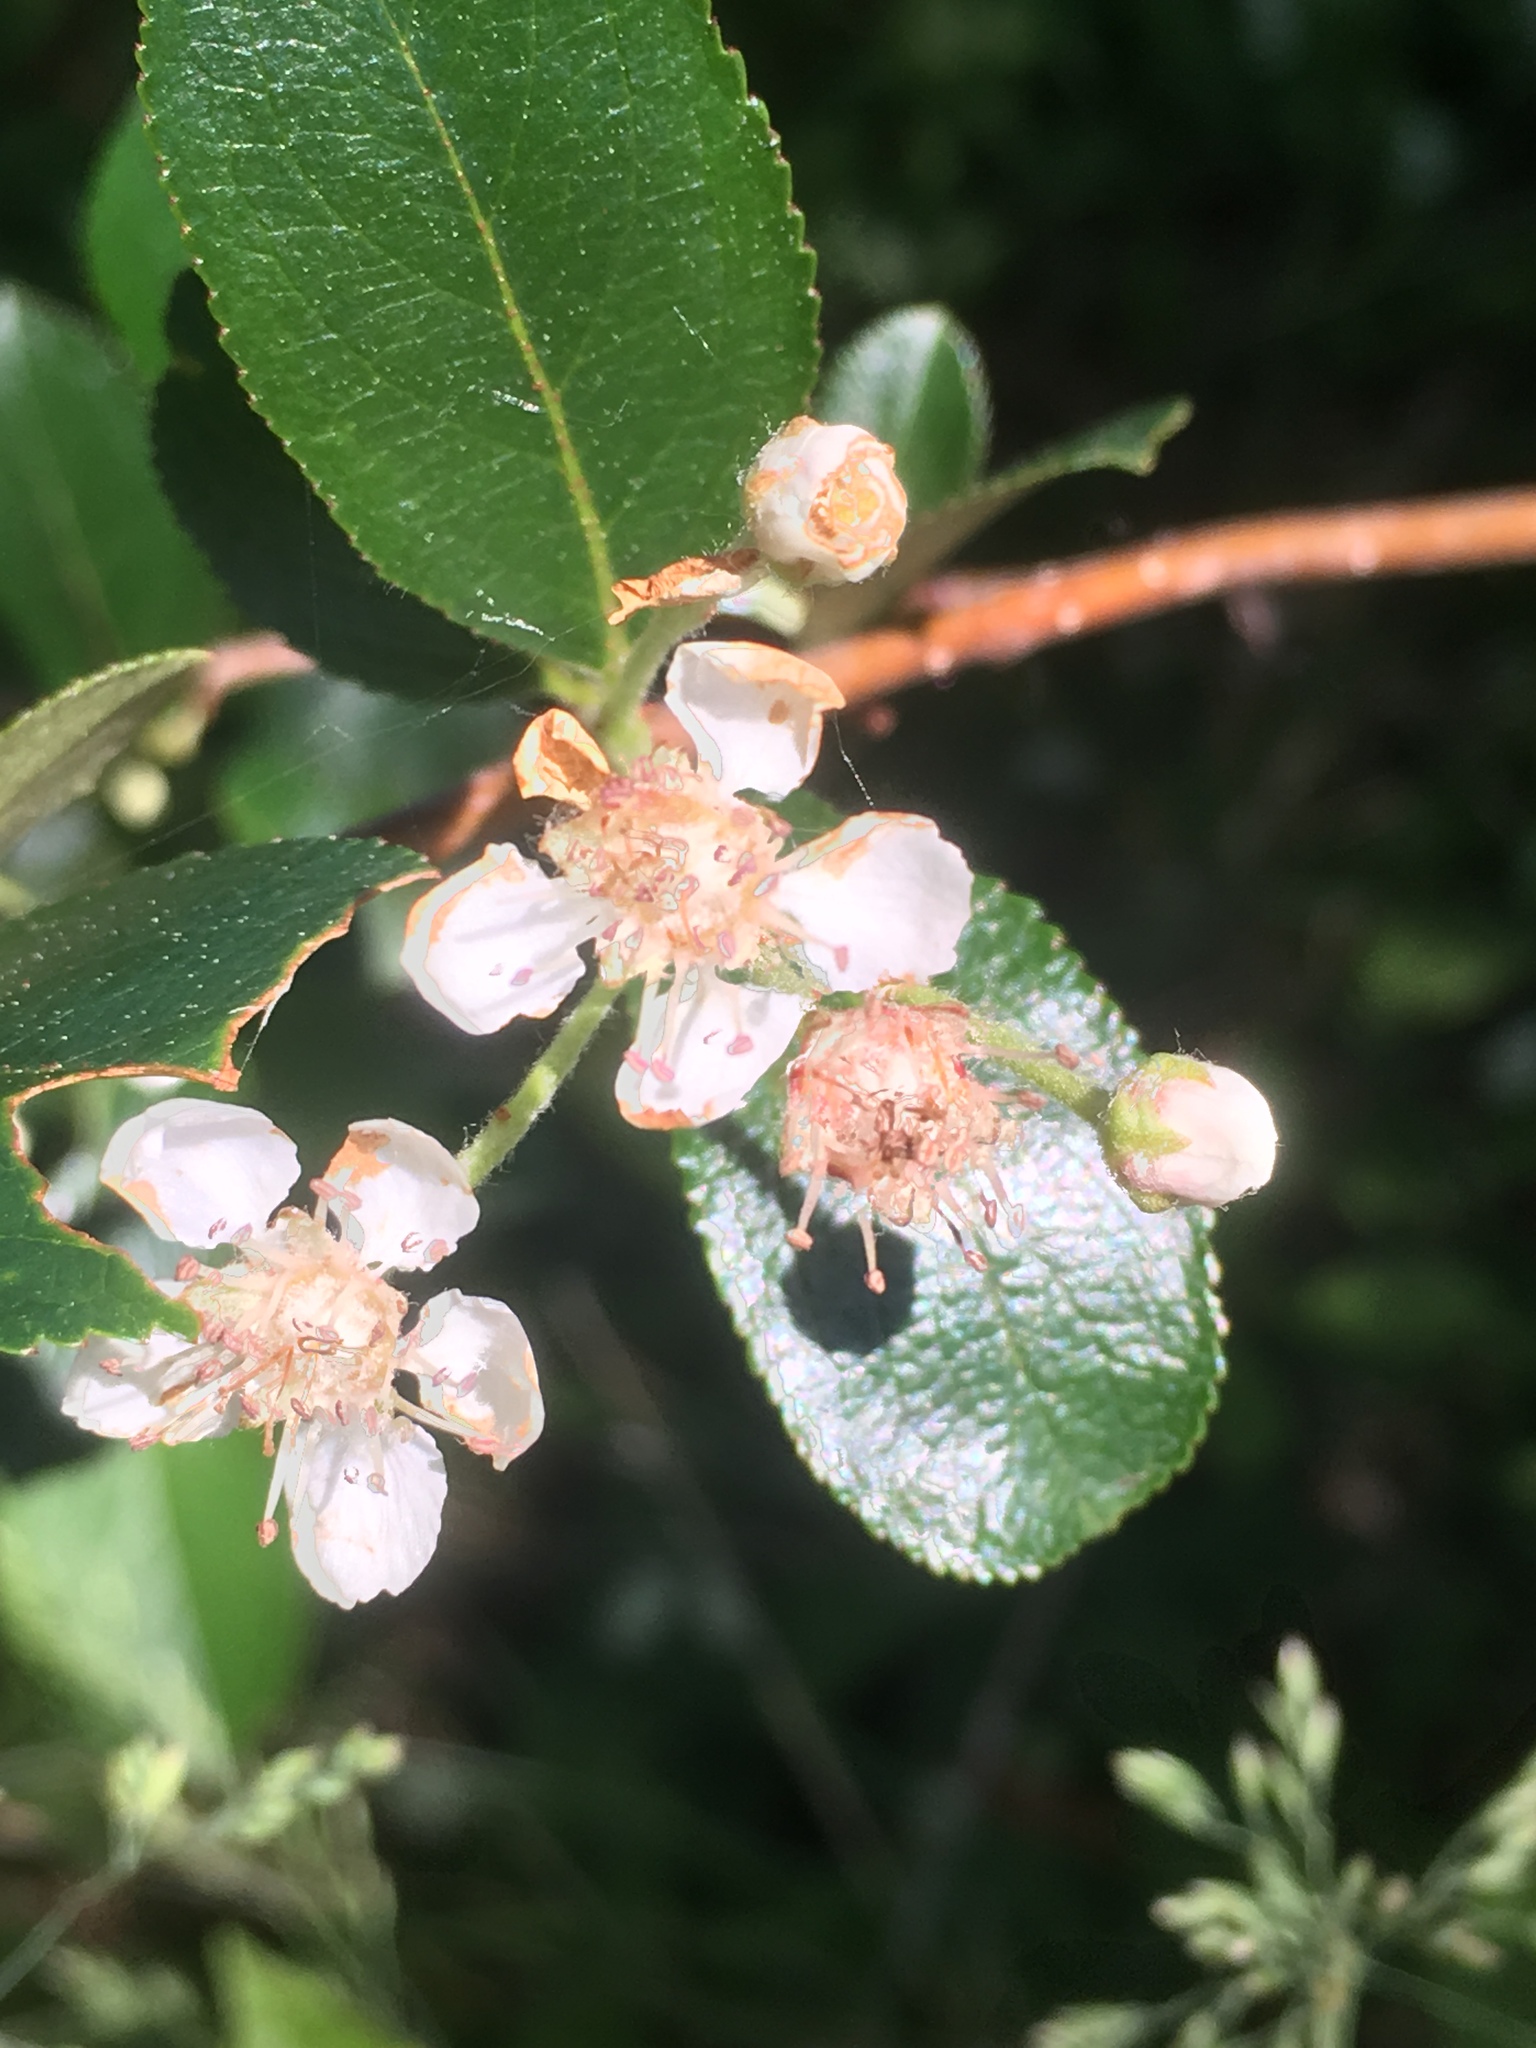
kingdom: Plantae
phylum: Tracheophyta
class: Magnoliopsida
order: Rosales
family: Rosaceae
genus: Aronia
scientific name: Aronia prunifolia
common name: Purple chokeberry
